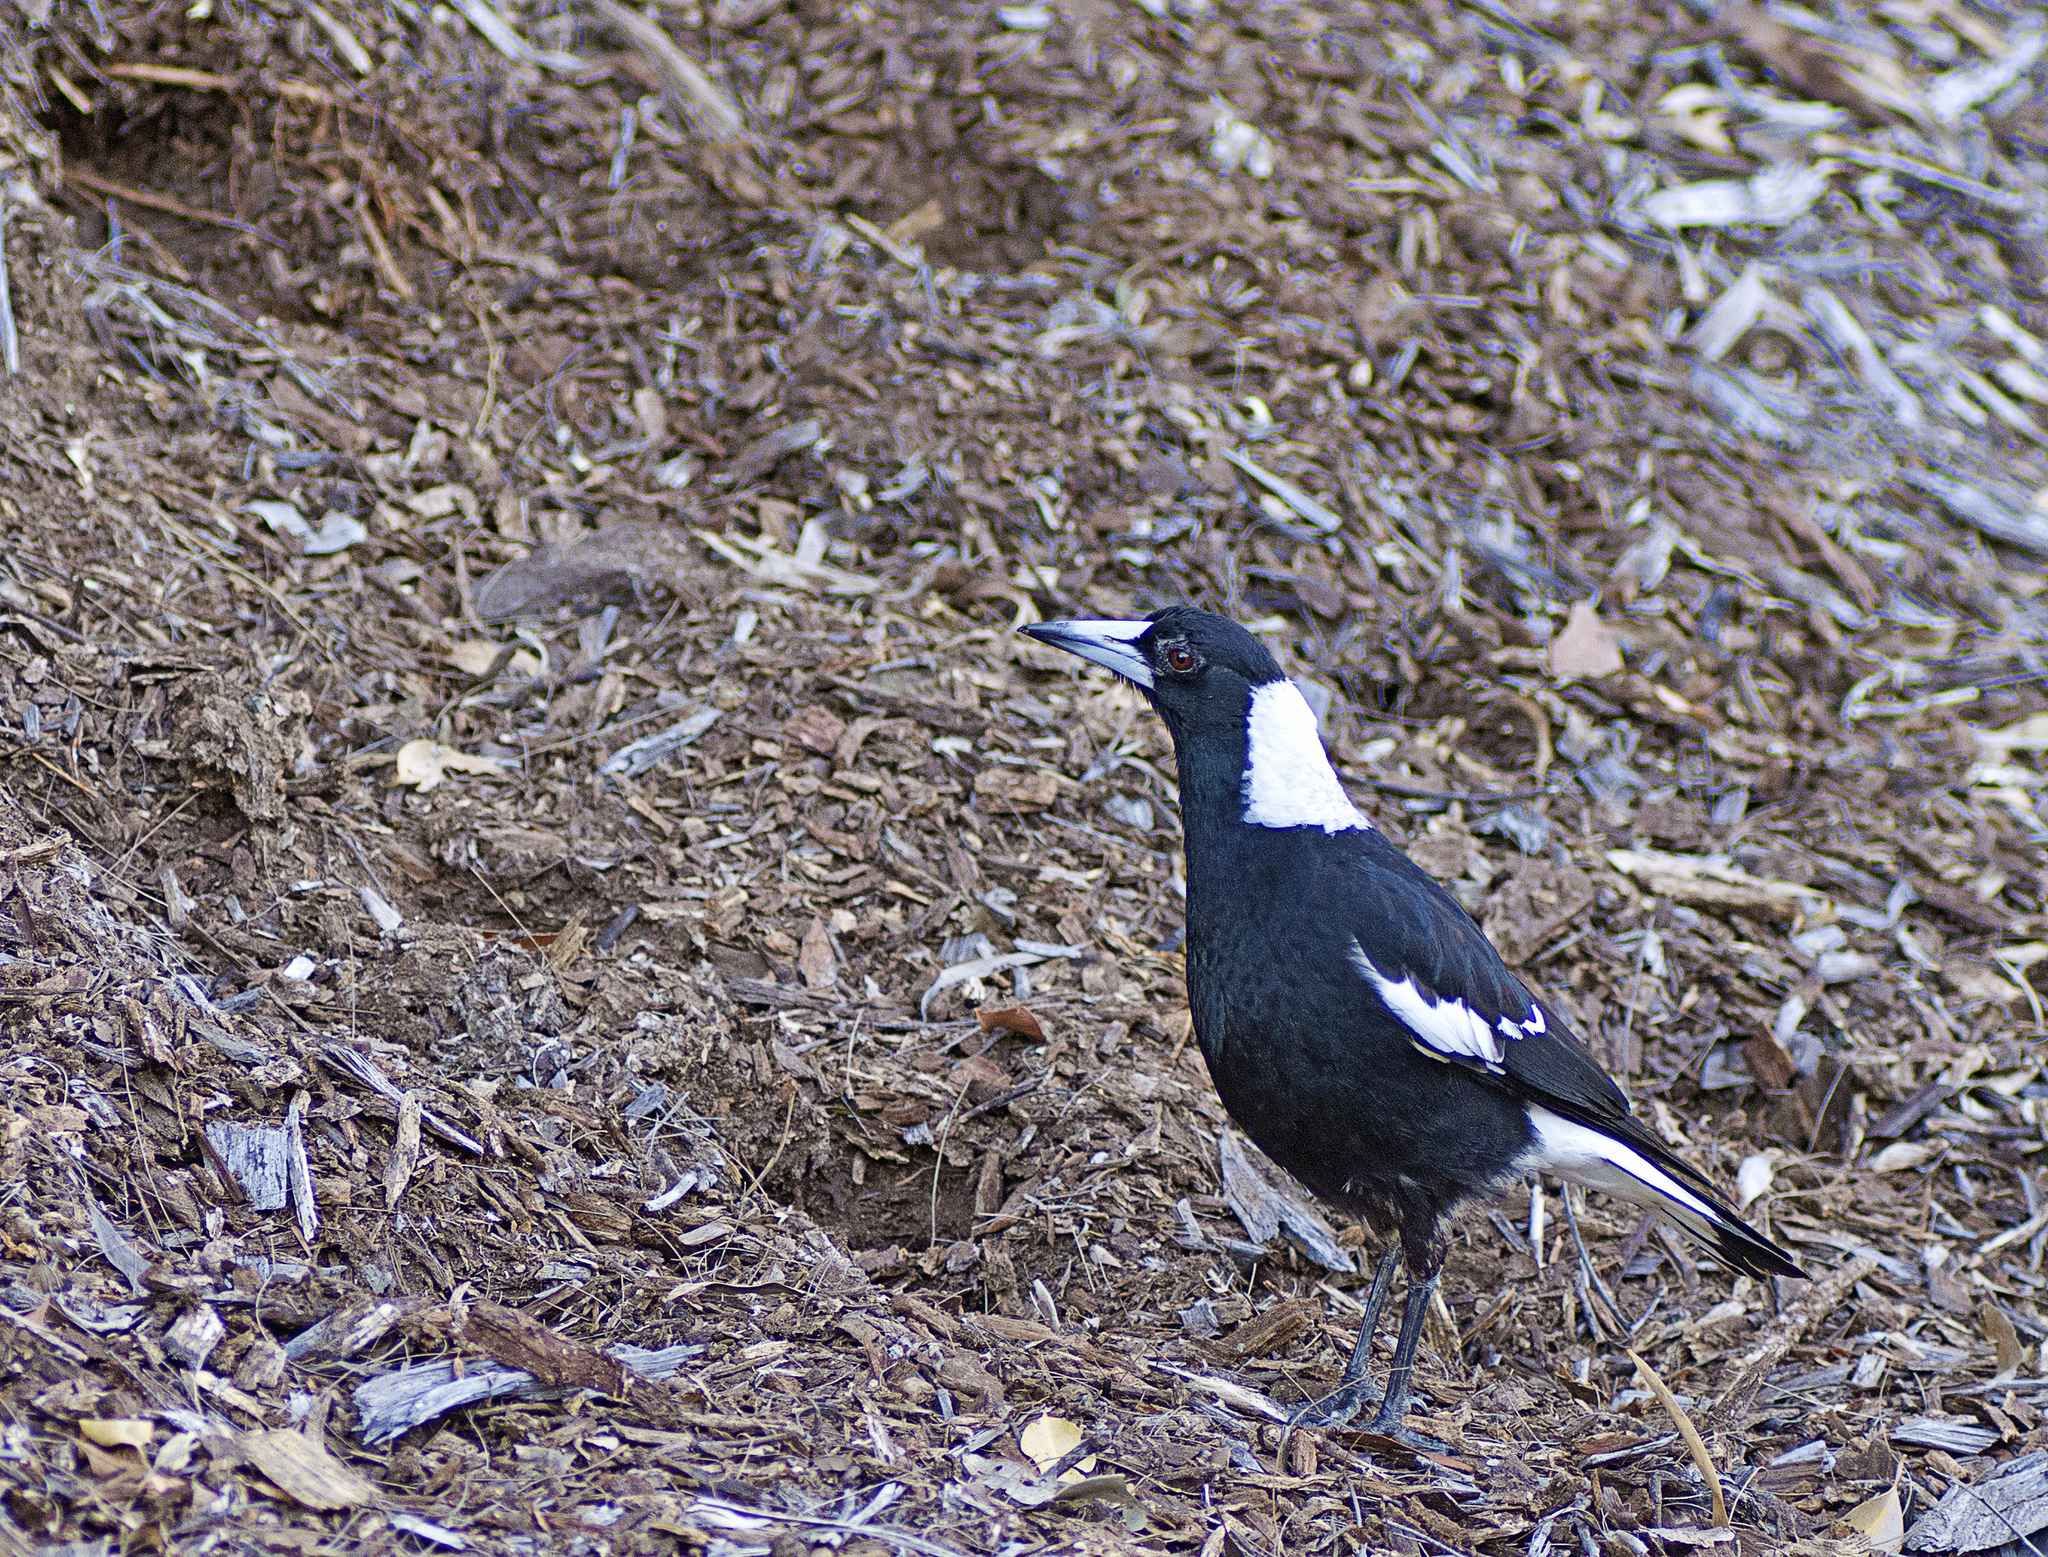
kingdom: Animalia
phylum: Chordata
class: Aves
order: Passeriformes
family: Cracticidae
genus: Gymnorhina
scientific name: Gymnorhina tibicen
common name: Australian magpie
